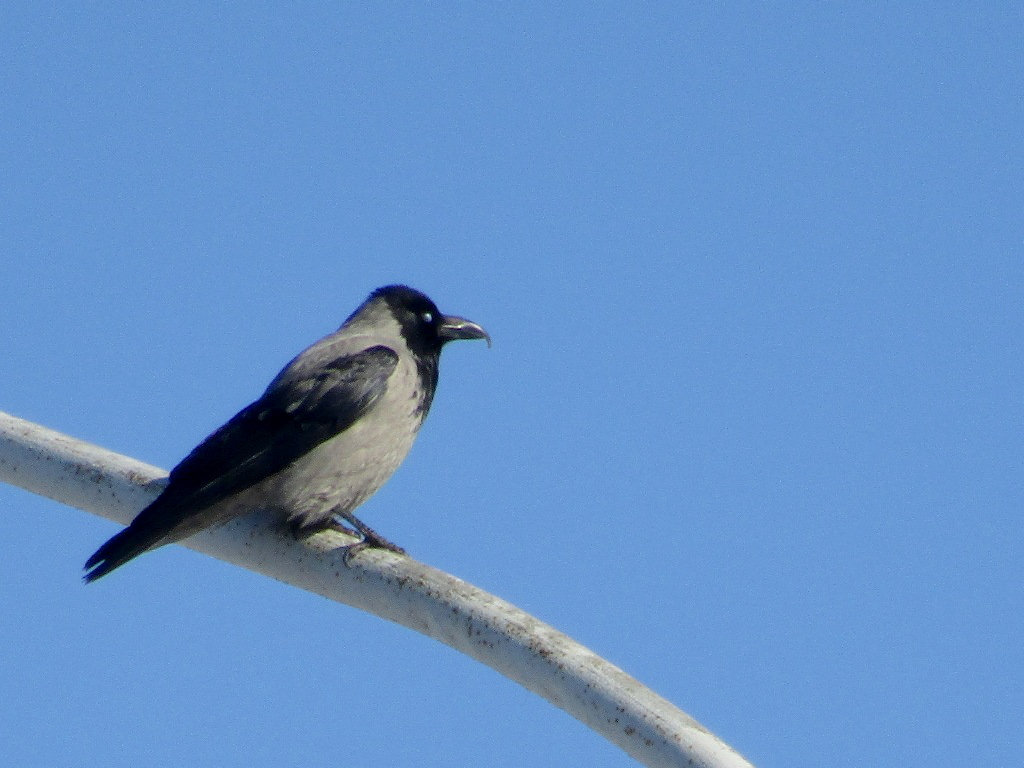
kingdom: Animalia
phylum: Chordata
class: Aves
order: Passeriformes
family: Corvidae
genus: Corvus
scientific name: Corvus cornix
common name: Hooded crow
